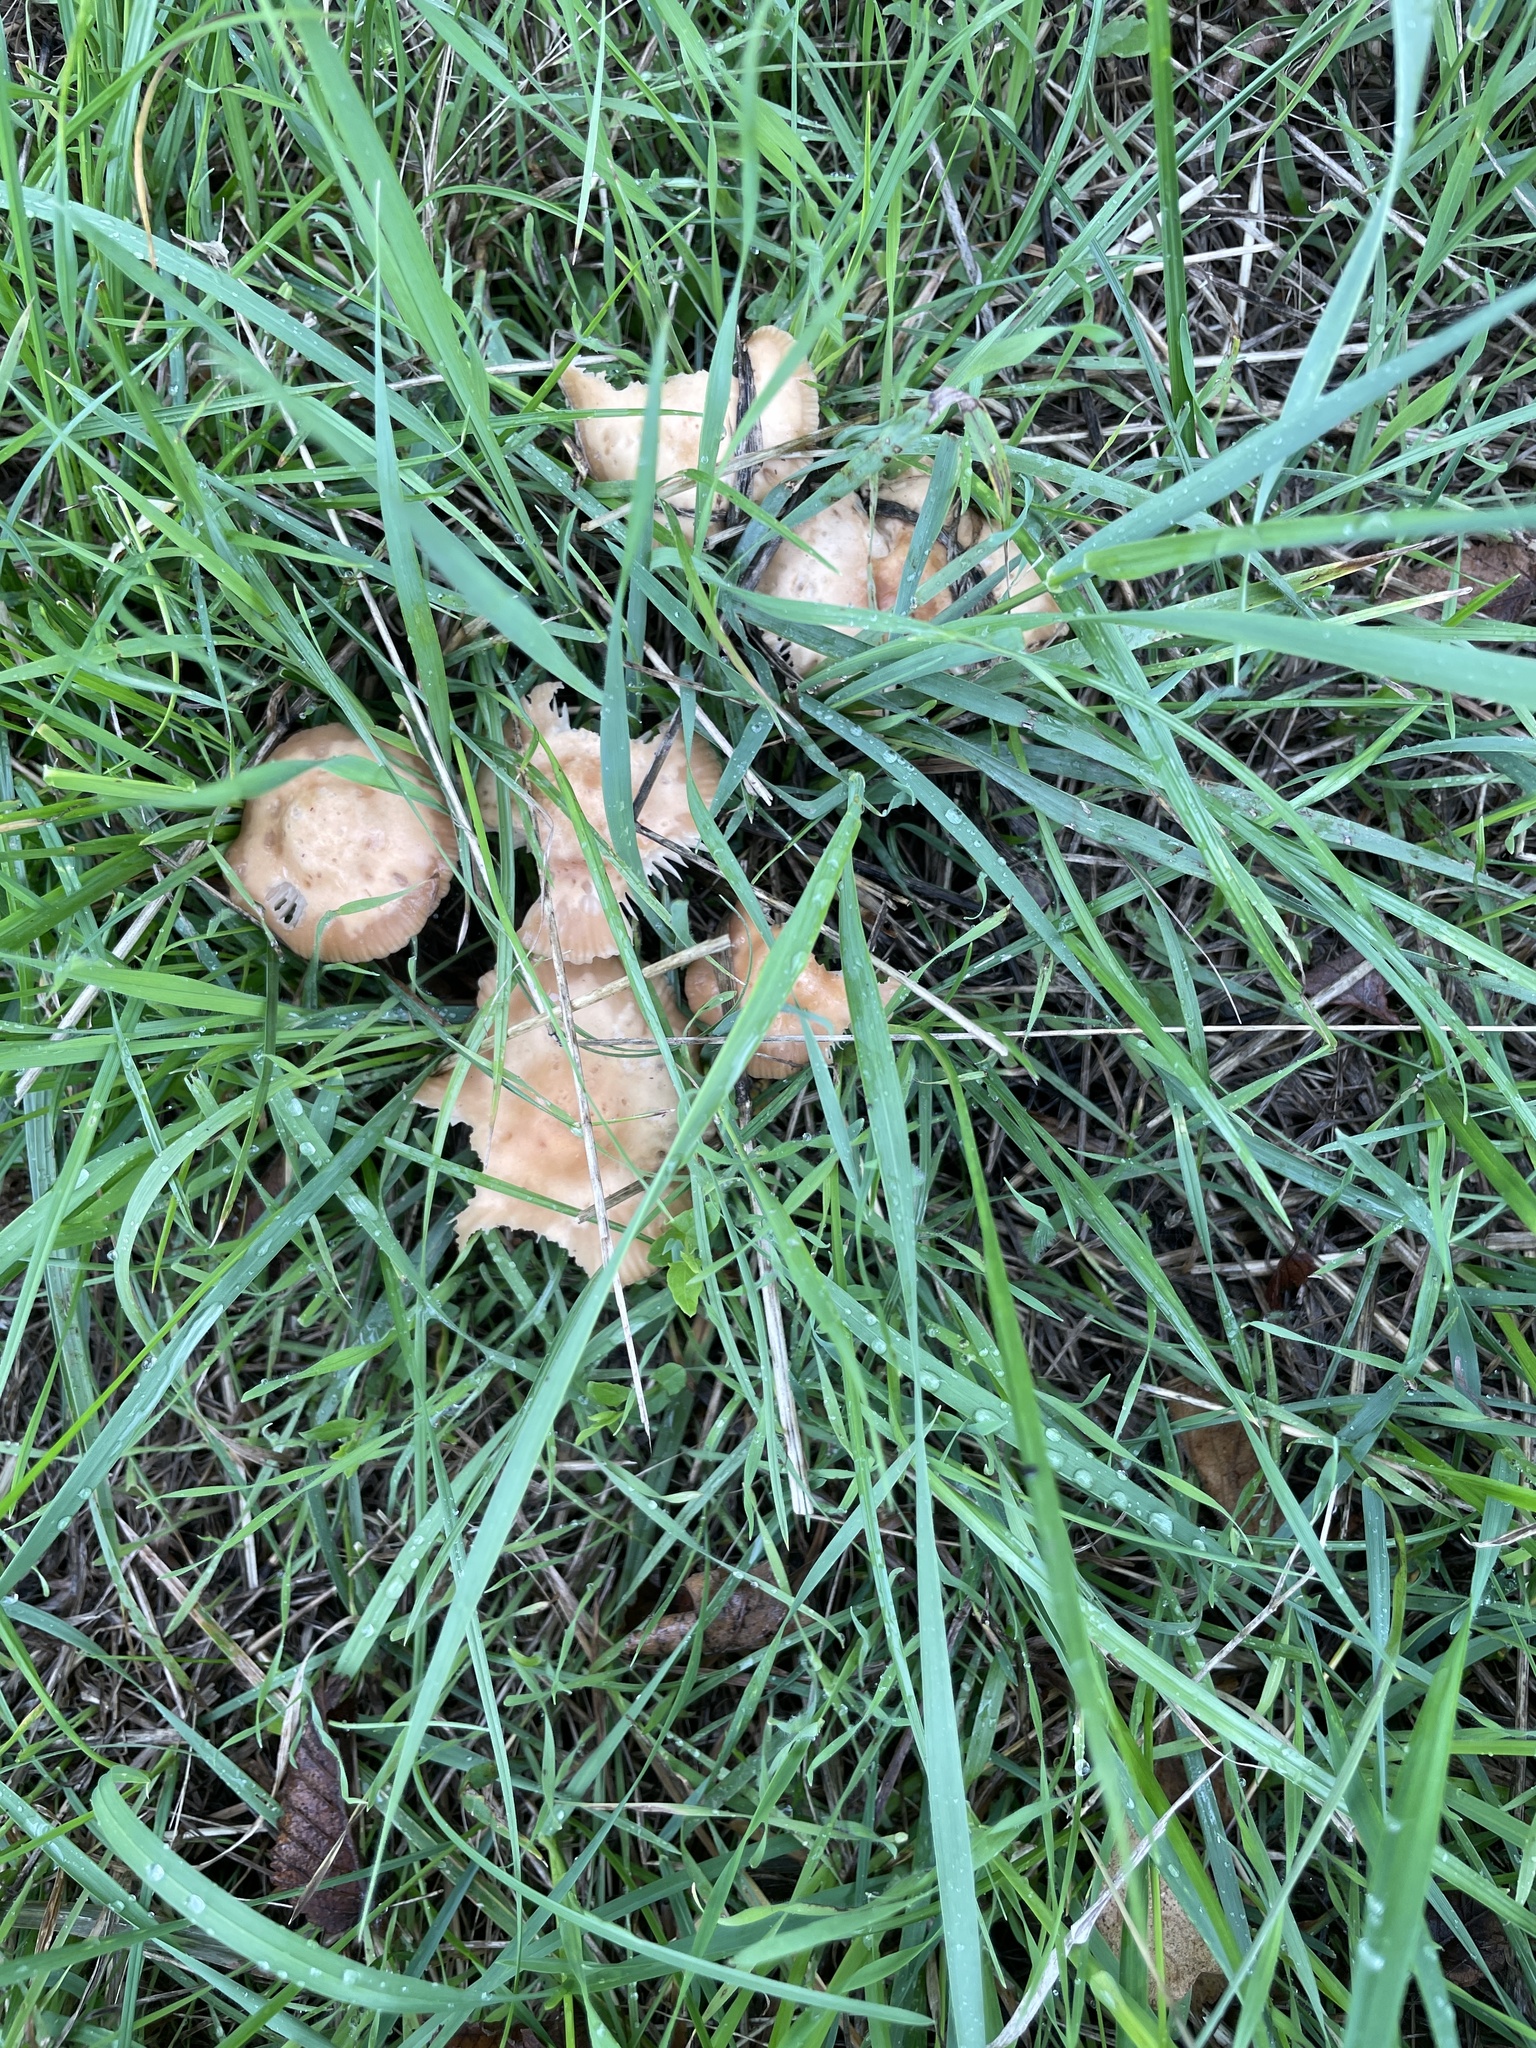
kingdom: Fungi
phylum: Basidiomycota
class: Agaricomycetes
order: Agaricales
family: Marasmiaceae
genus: Marasmius
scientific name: Marasmius oreades
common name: Fairy ring champignon
